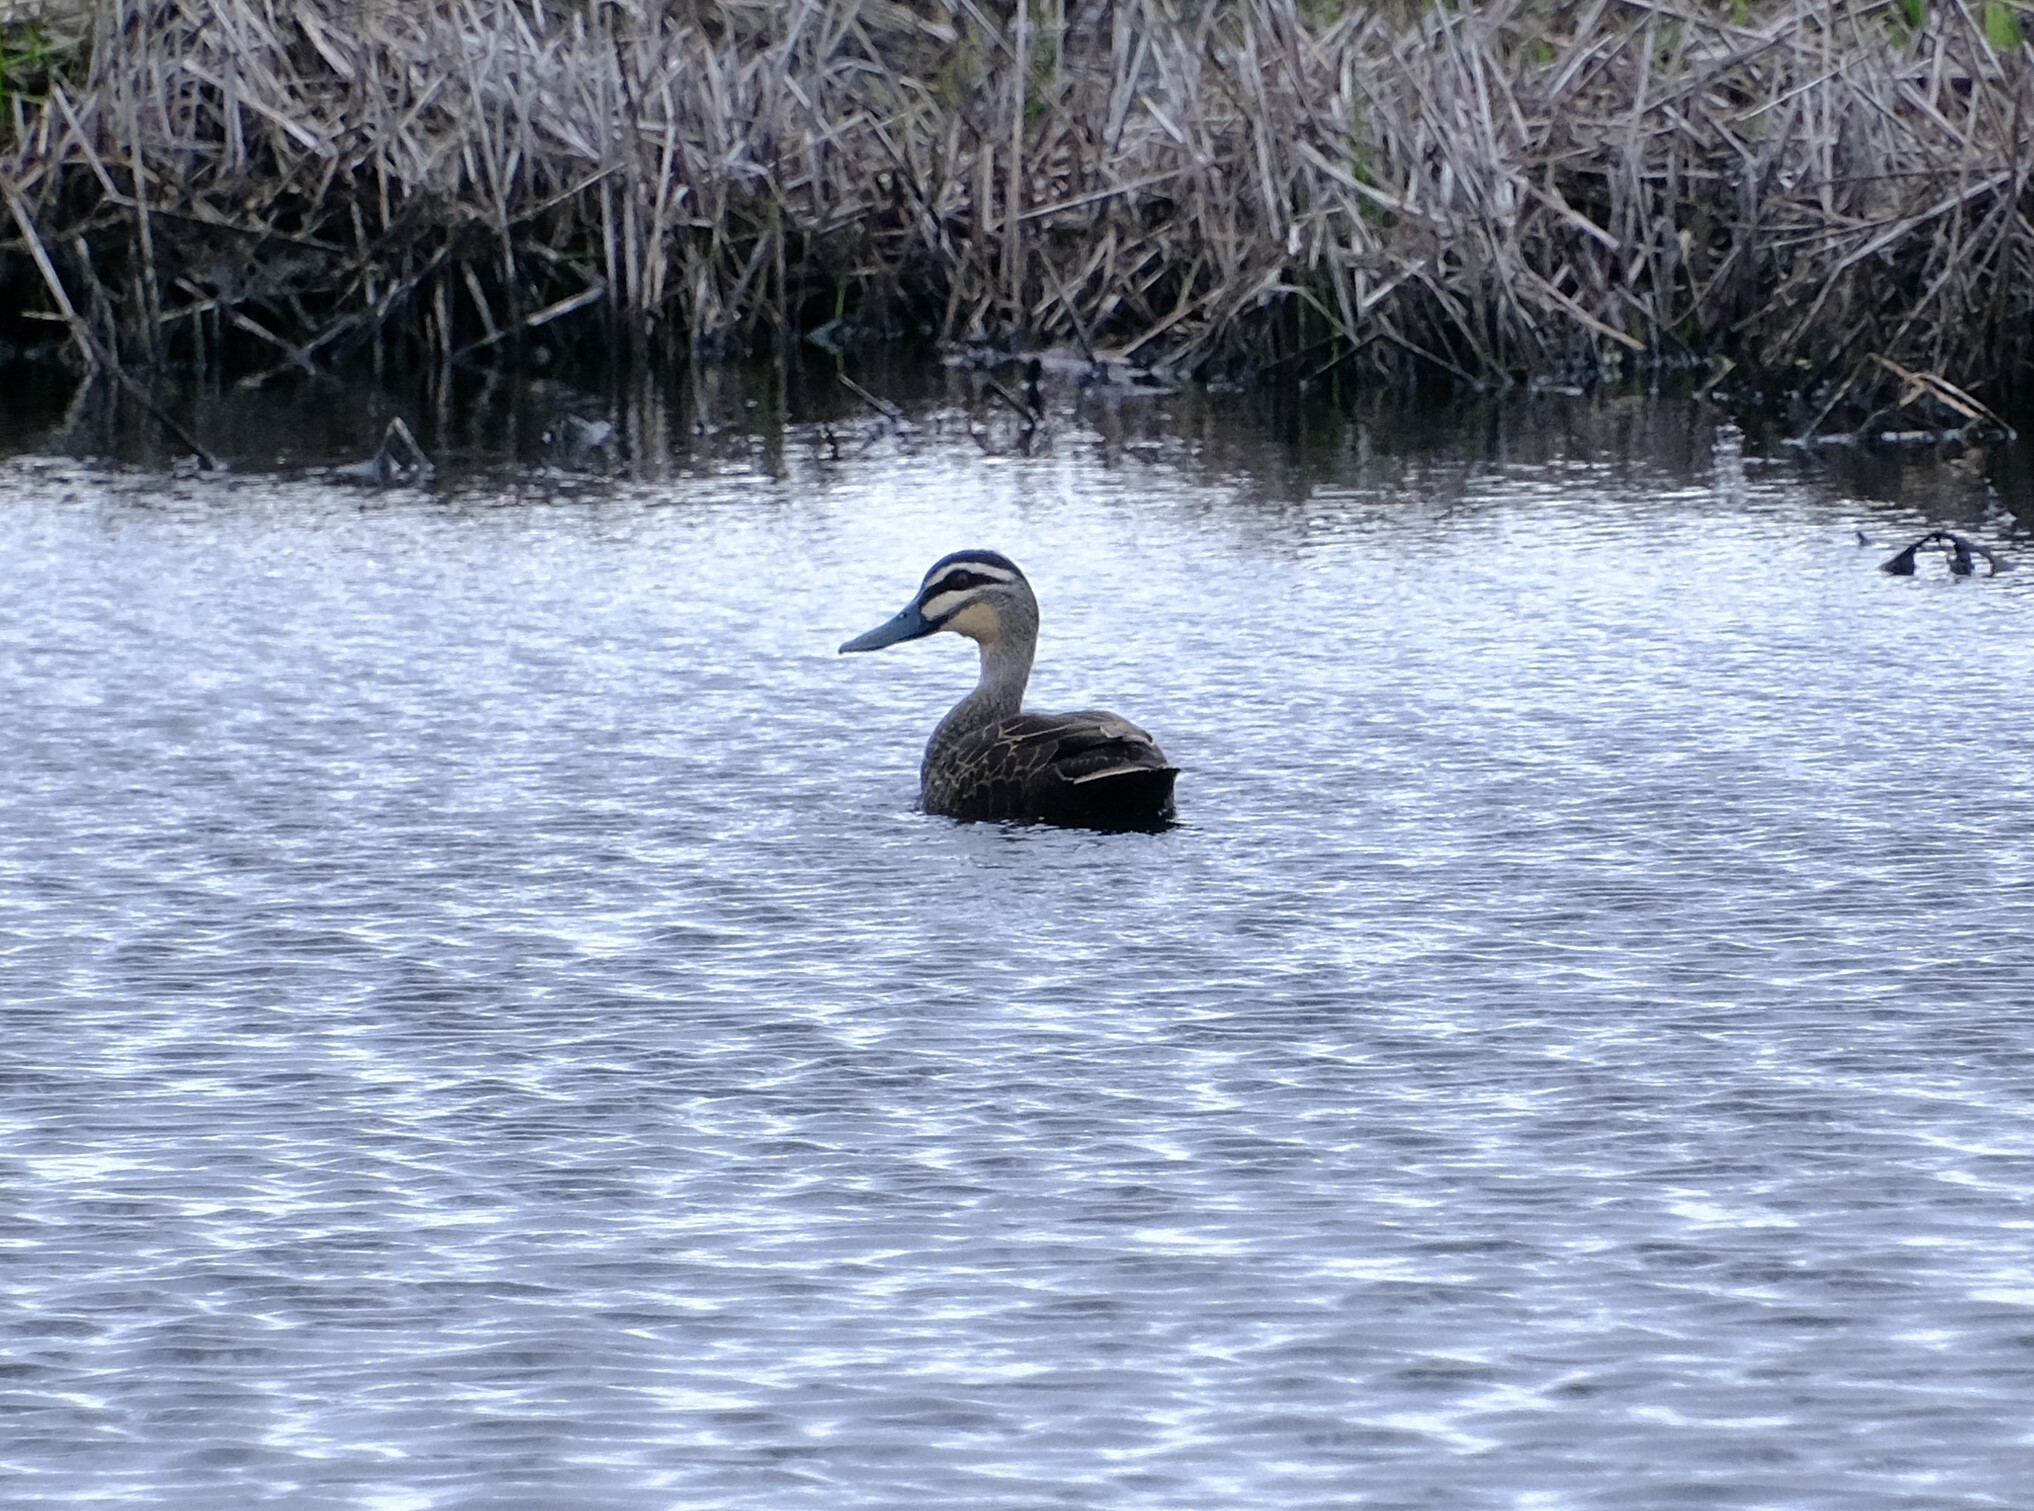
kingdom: Animalia
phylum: Chordata
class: Aves
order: Anseriformes
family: Anatidae
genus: Anas
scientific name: Anas superciliosa
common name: Pacific black duck
